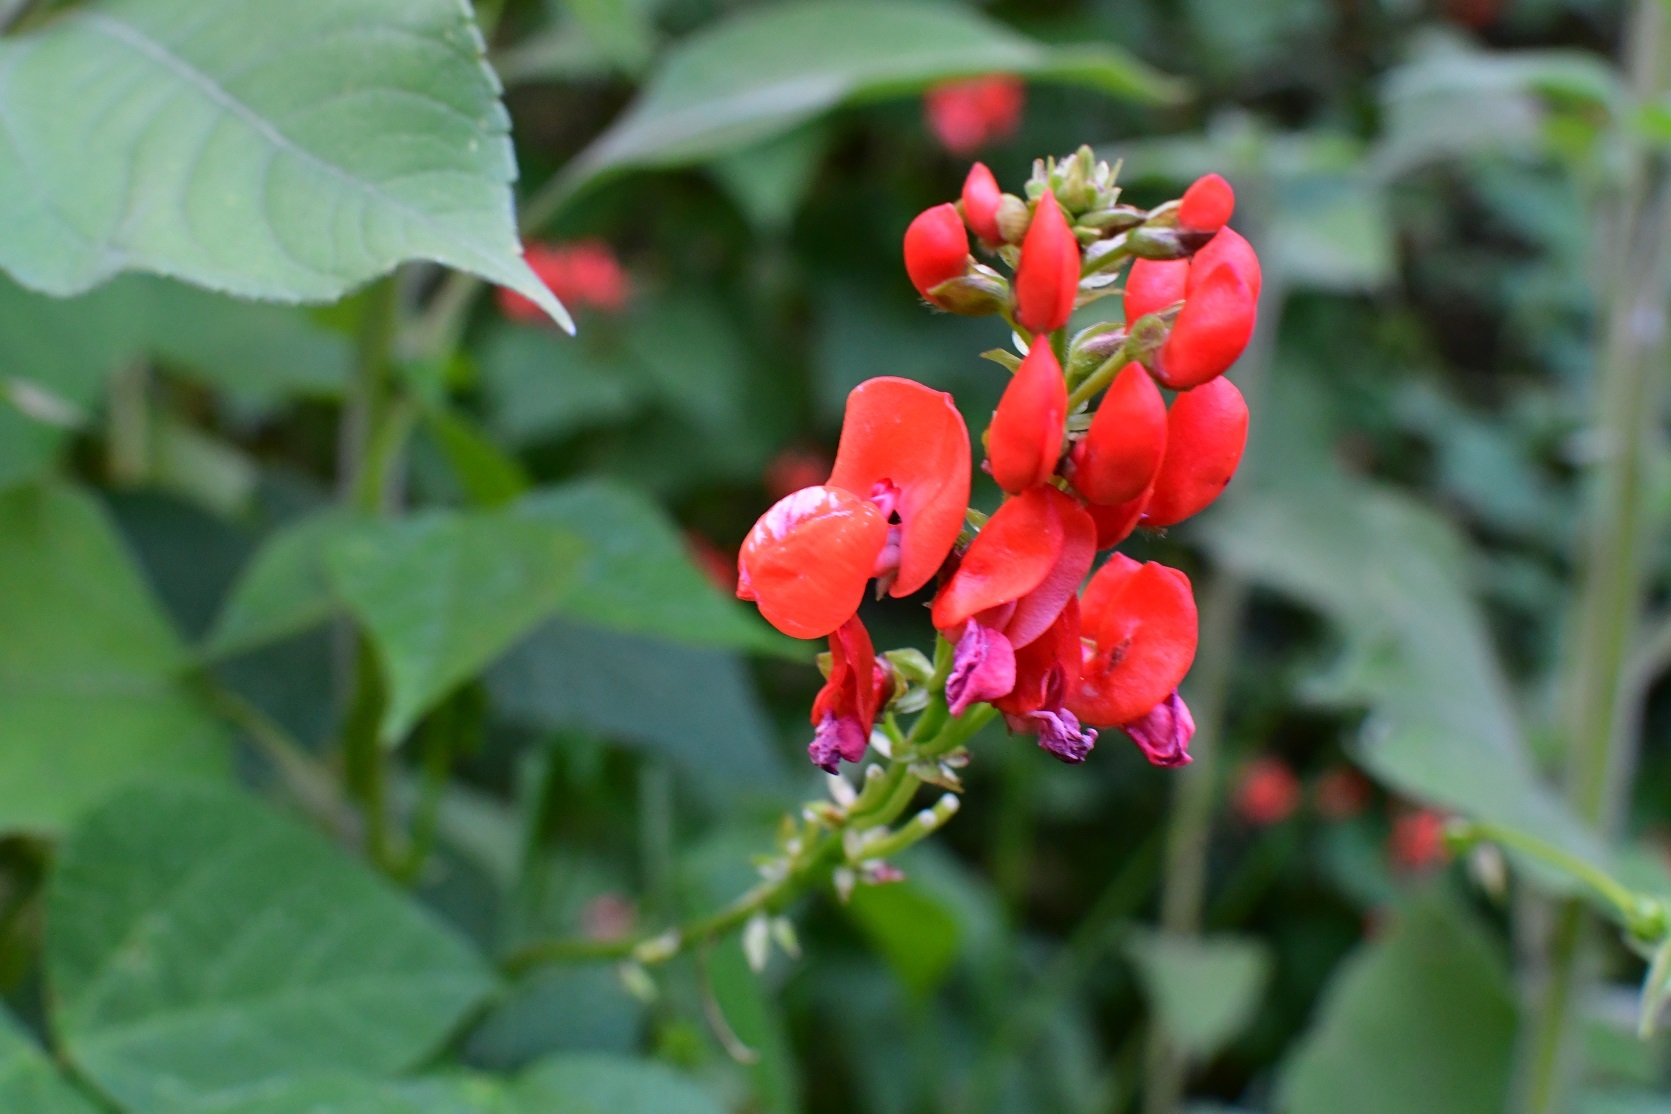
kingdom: Plantae
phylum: Tracheophyta
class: Magnoliopsida
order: Fabales
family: Fabaceae
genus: Phaseolus
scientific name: Phaseolus coccineus
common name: Runner bean
